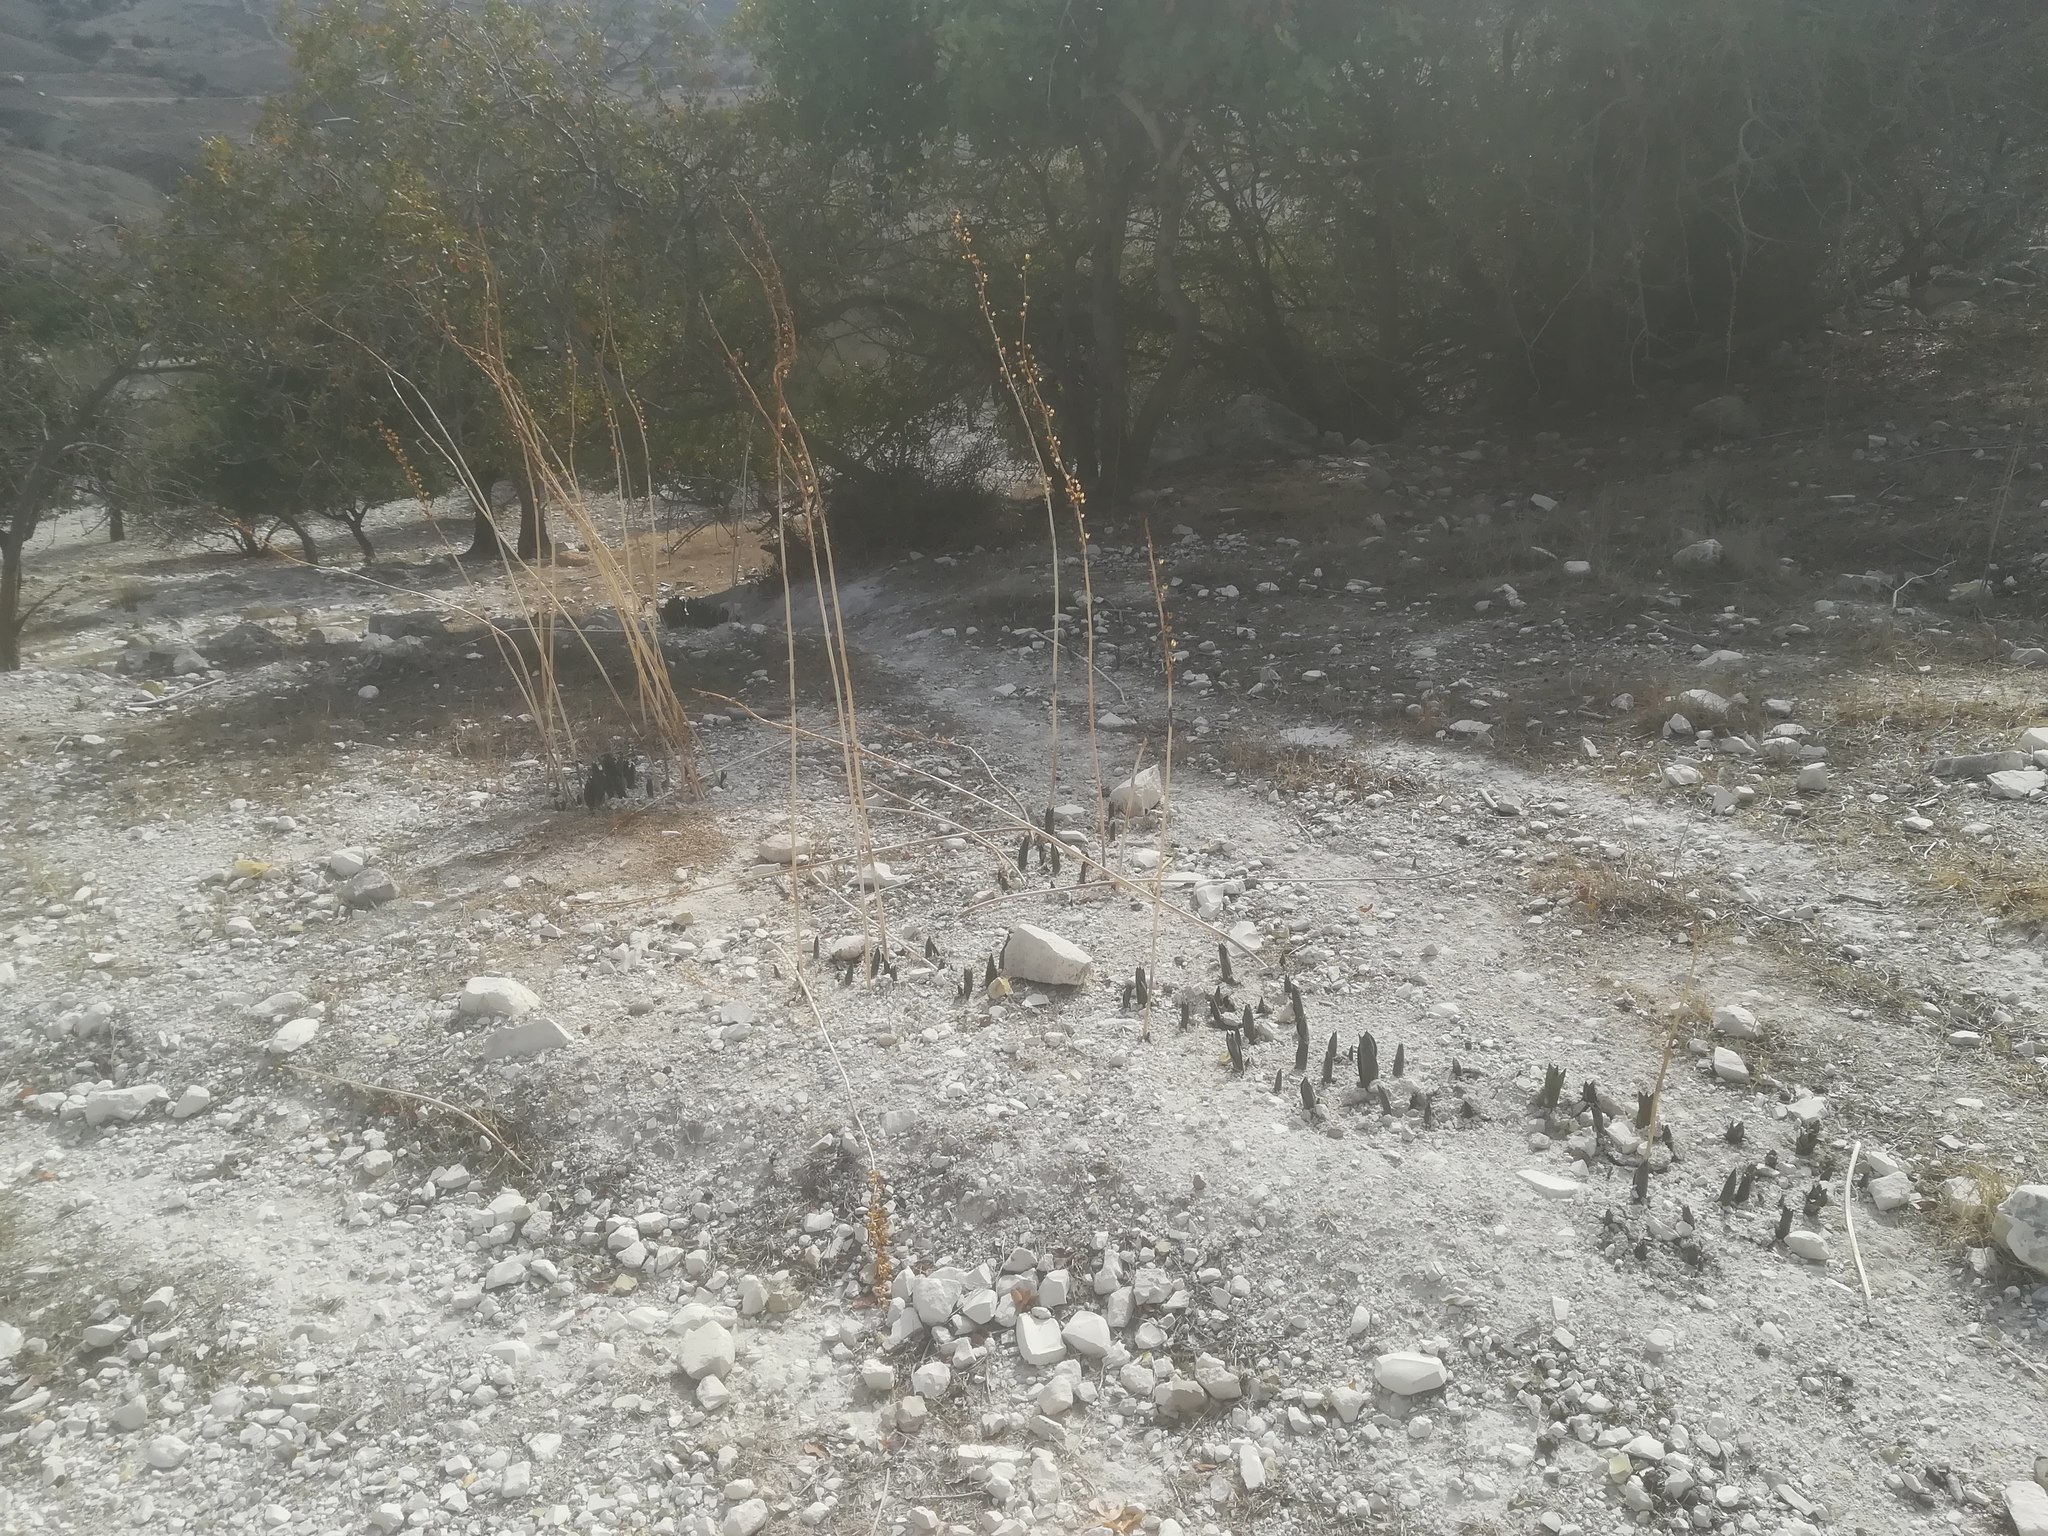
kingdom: Plantae
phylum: Tracheophyta
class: Liliopsida
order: Asparagales
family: Asparagaceae
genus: Drimia
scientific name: Drimia aphylla
